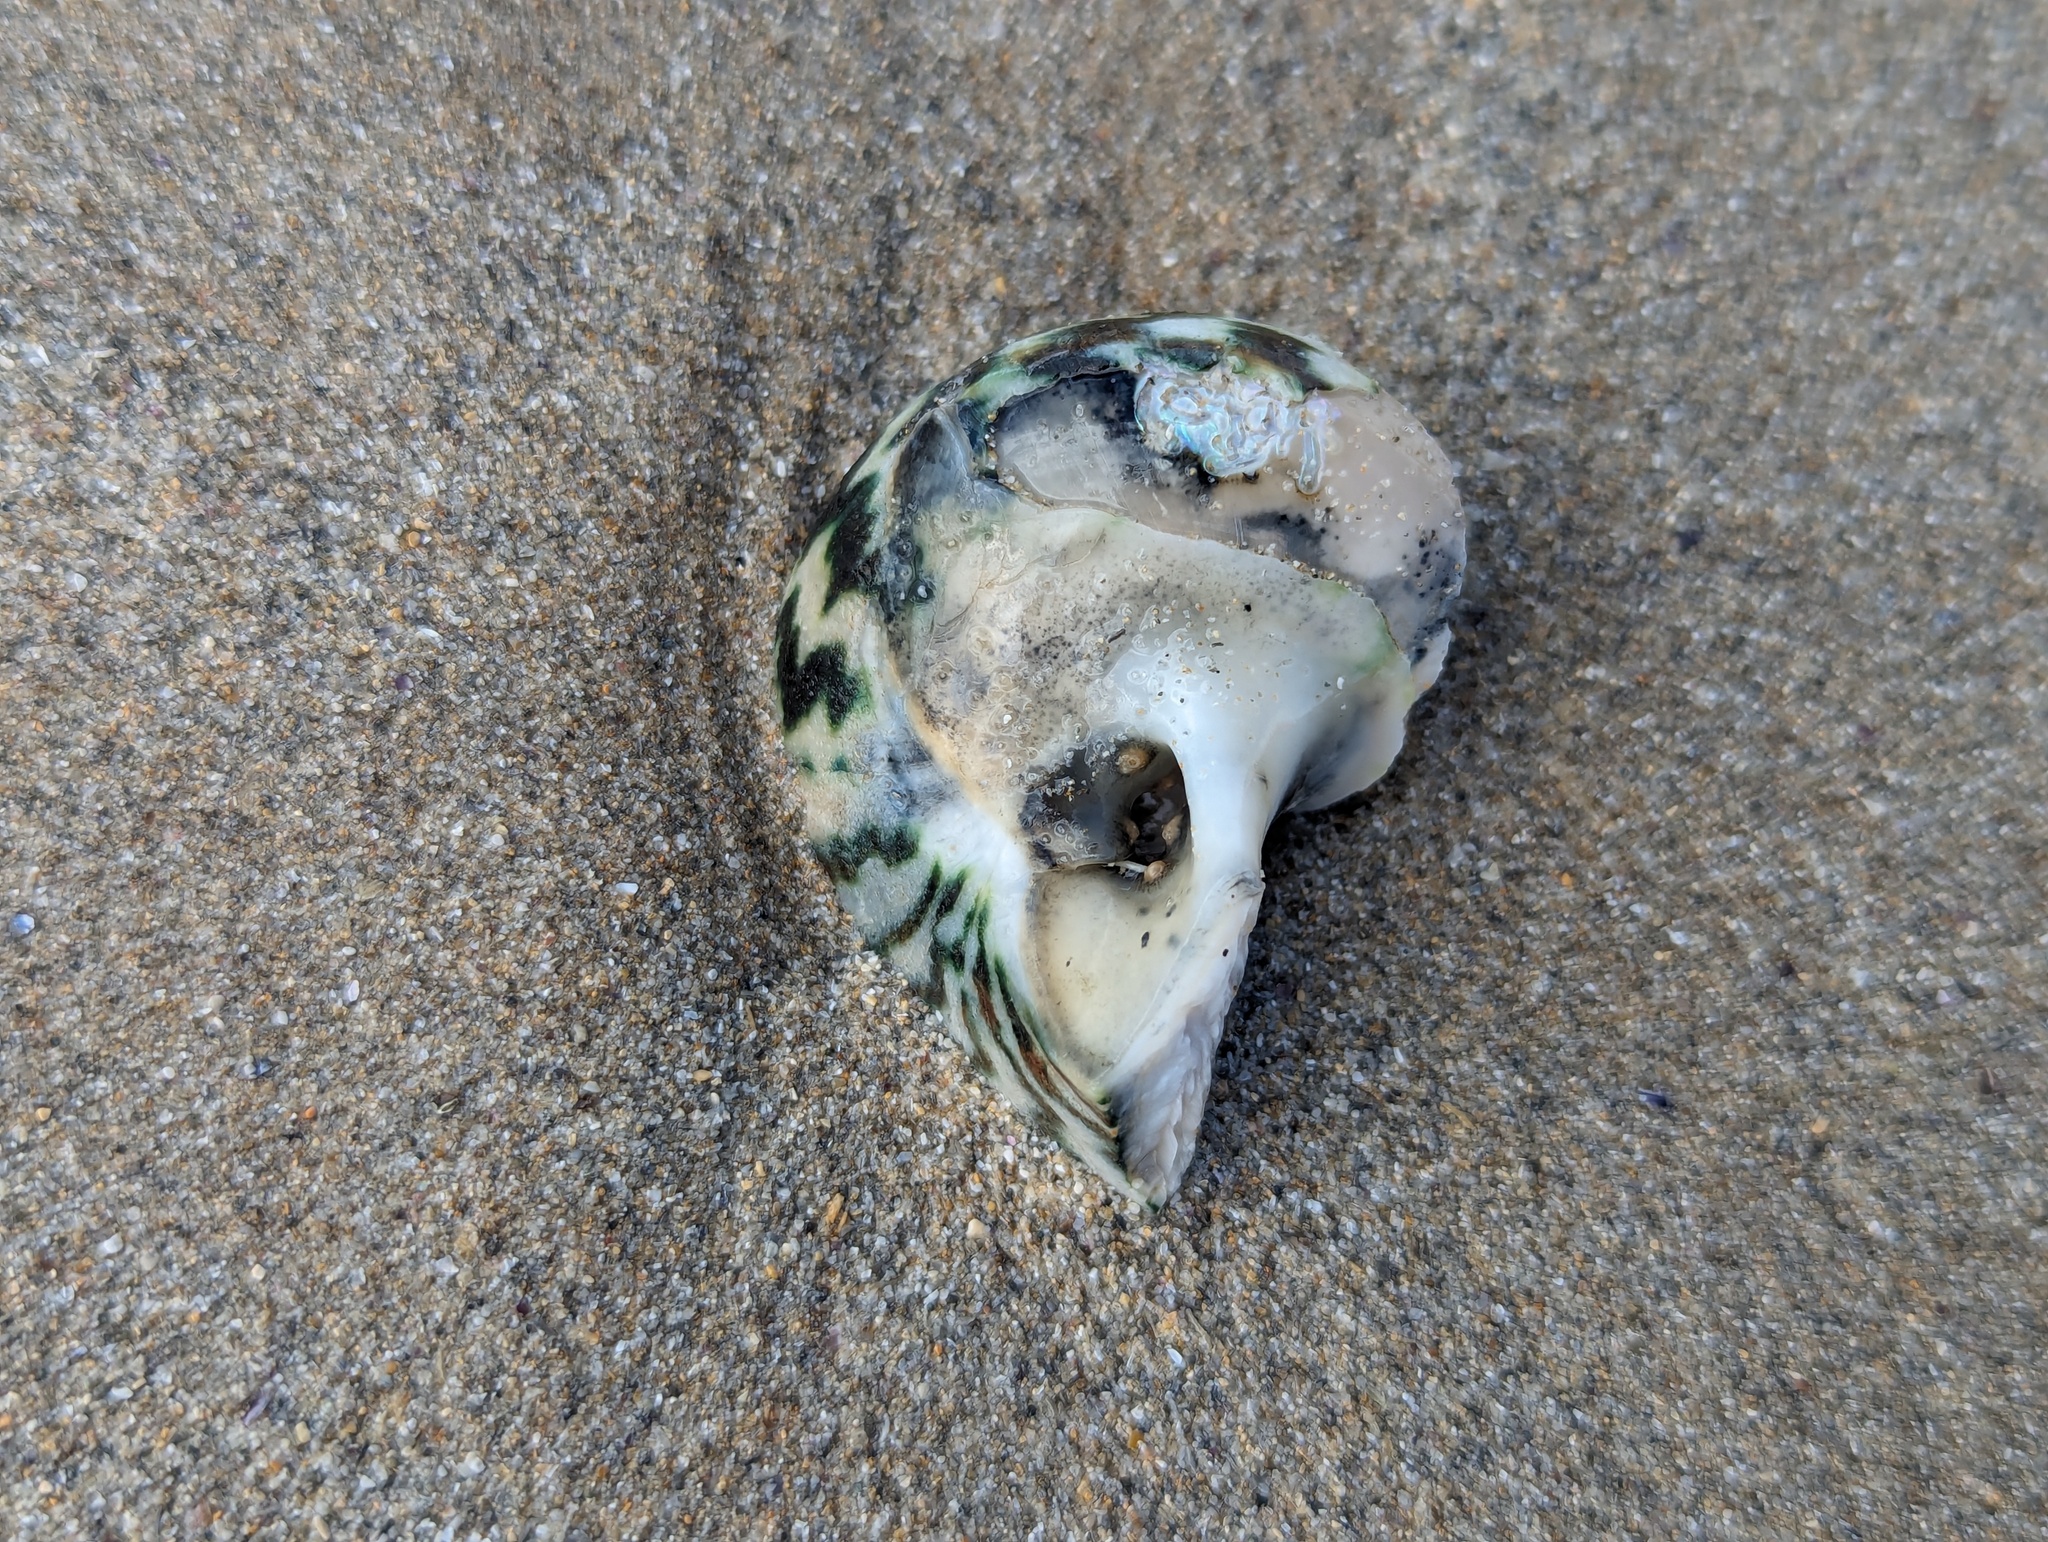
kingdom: Animalia
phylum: Mollusca
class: Gastropoda
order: Trochida
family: Turbinidae
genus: Lunella
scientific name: Lunella undulata
